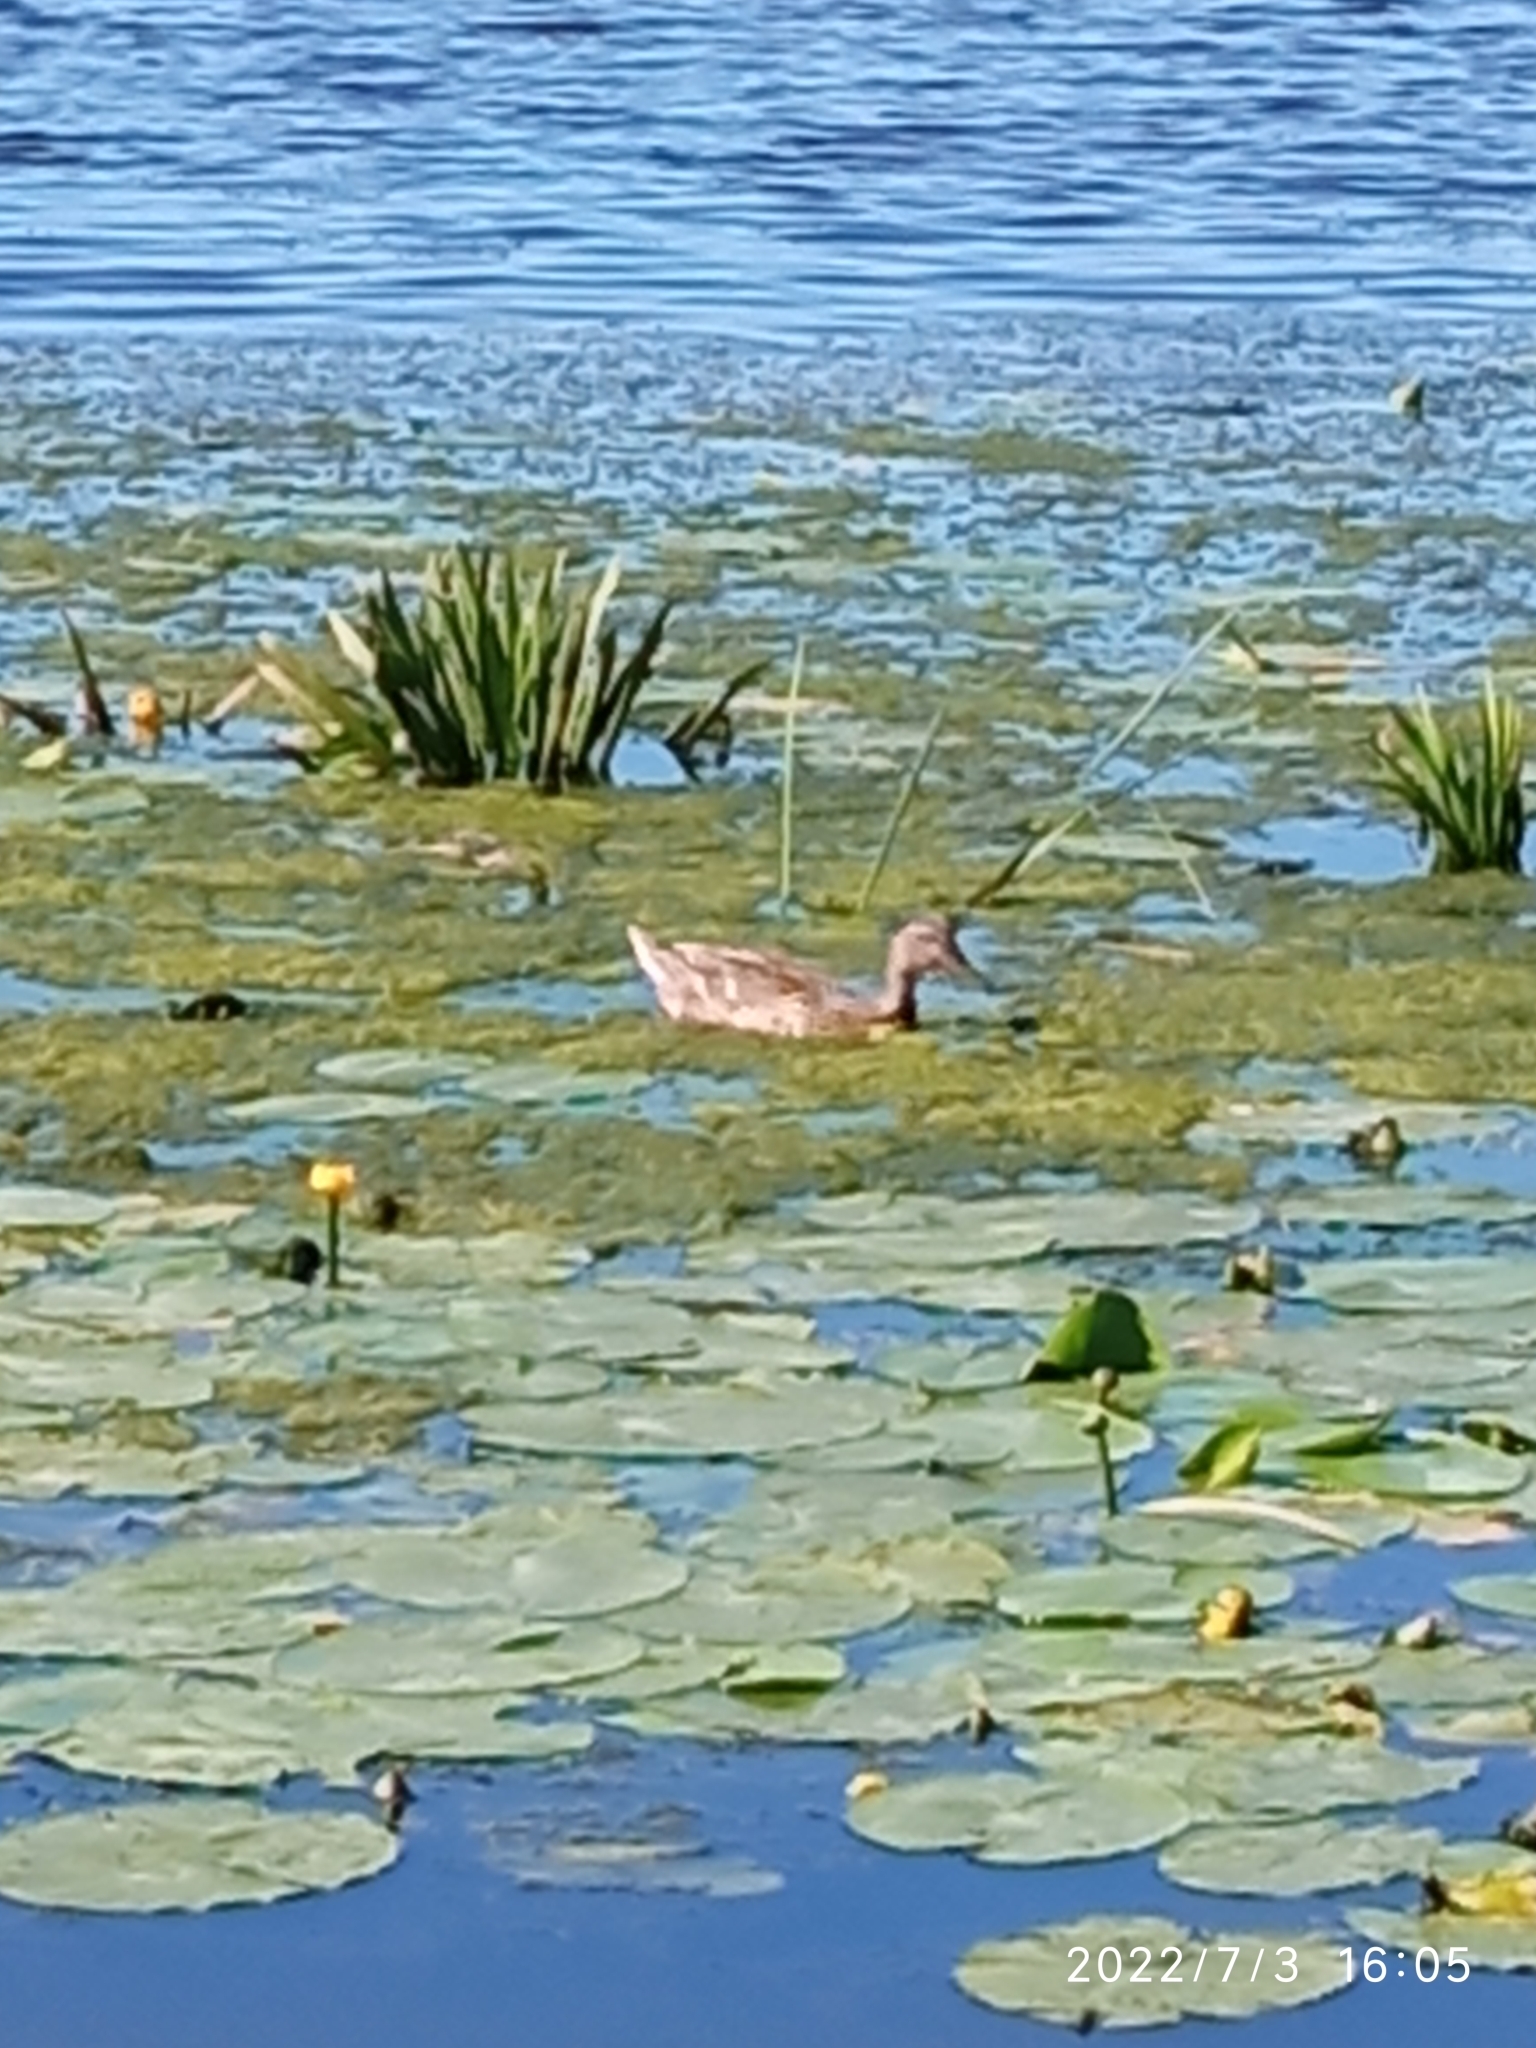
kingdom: Animalia
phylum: Chordata
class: Aves
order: Anseriformes
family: Anatidae
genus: Anas
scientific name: Anas platyrhynchos
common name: Mallard
